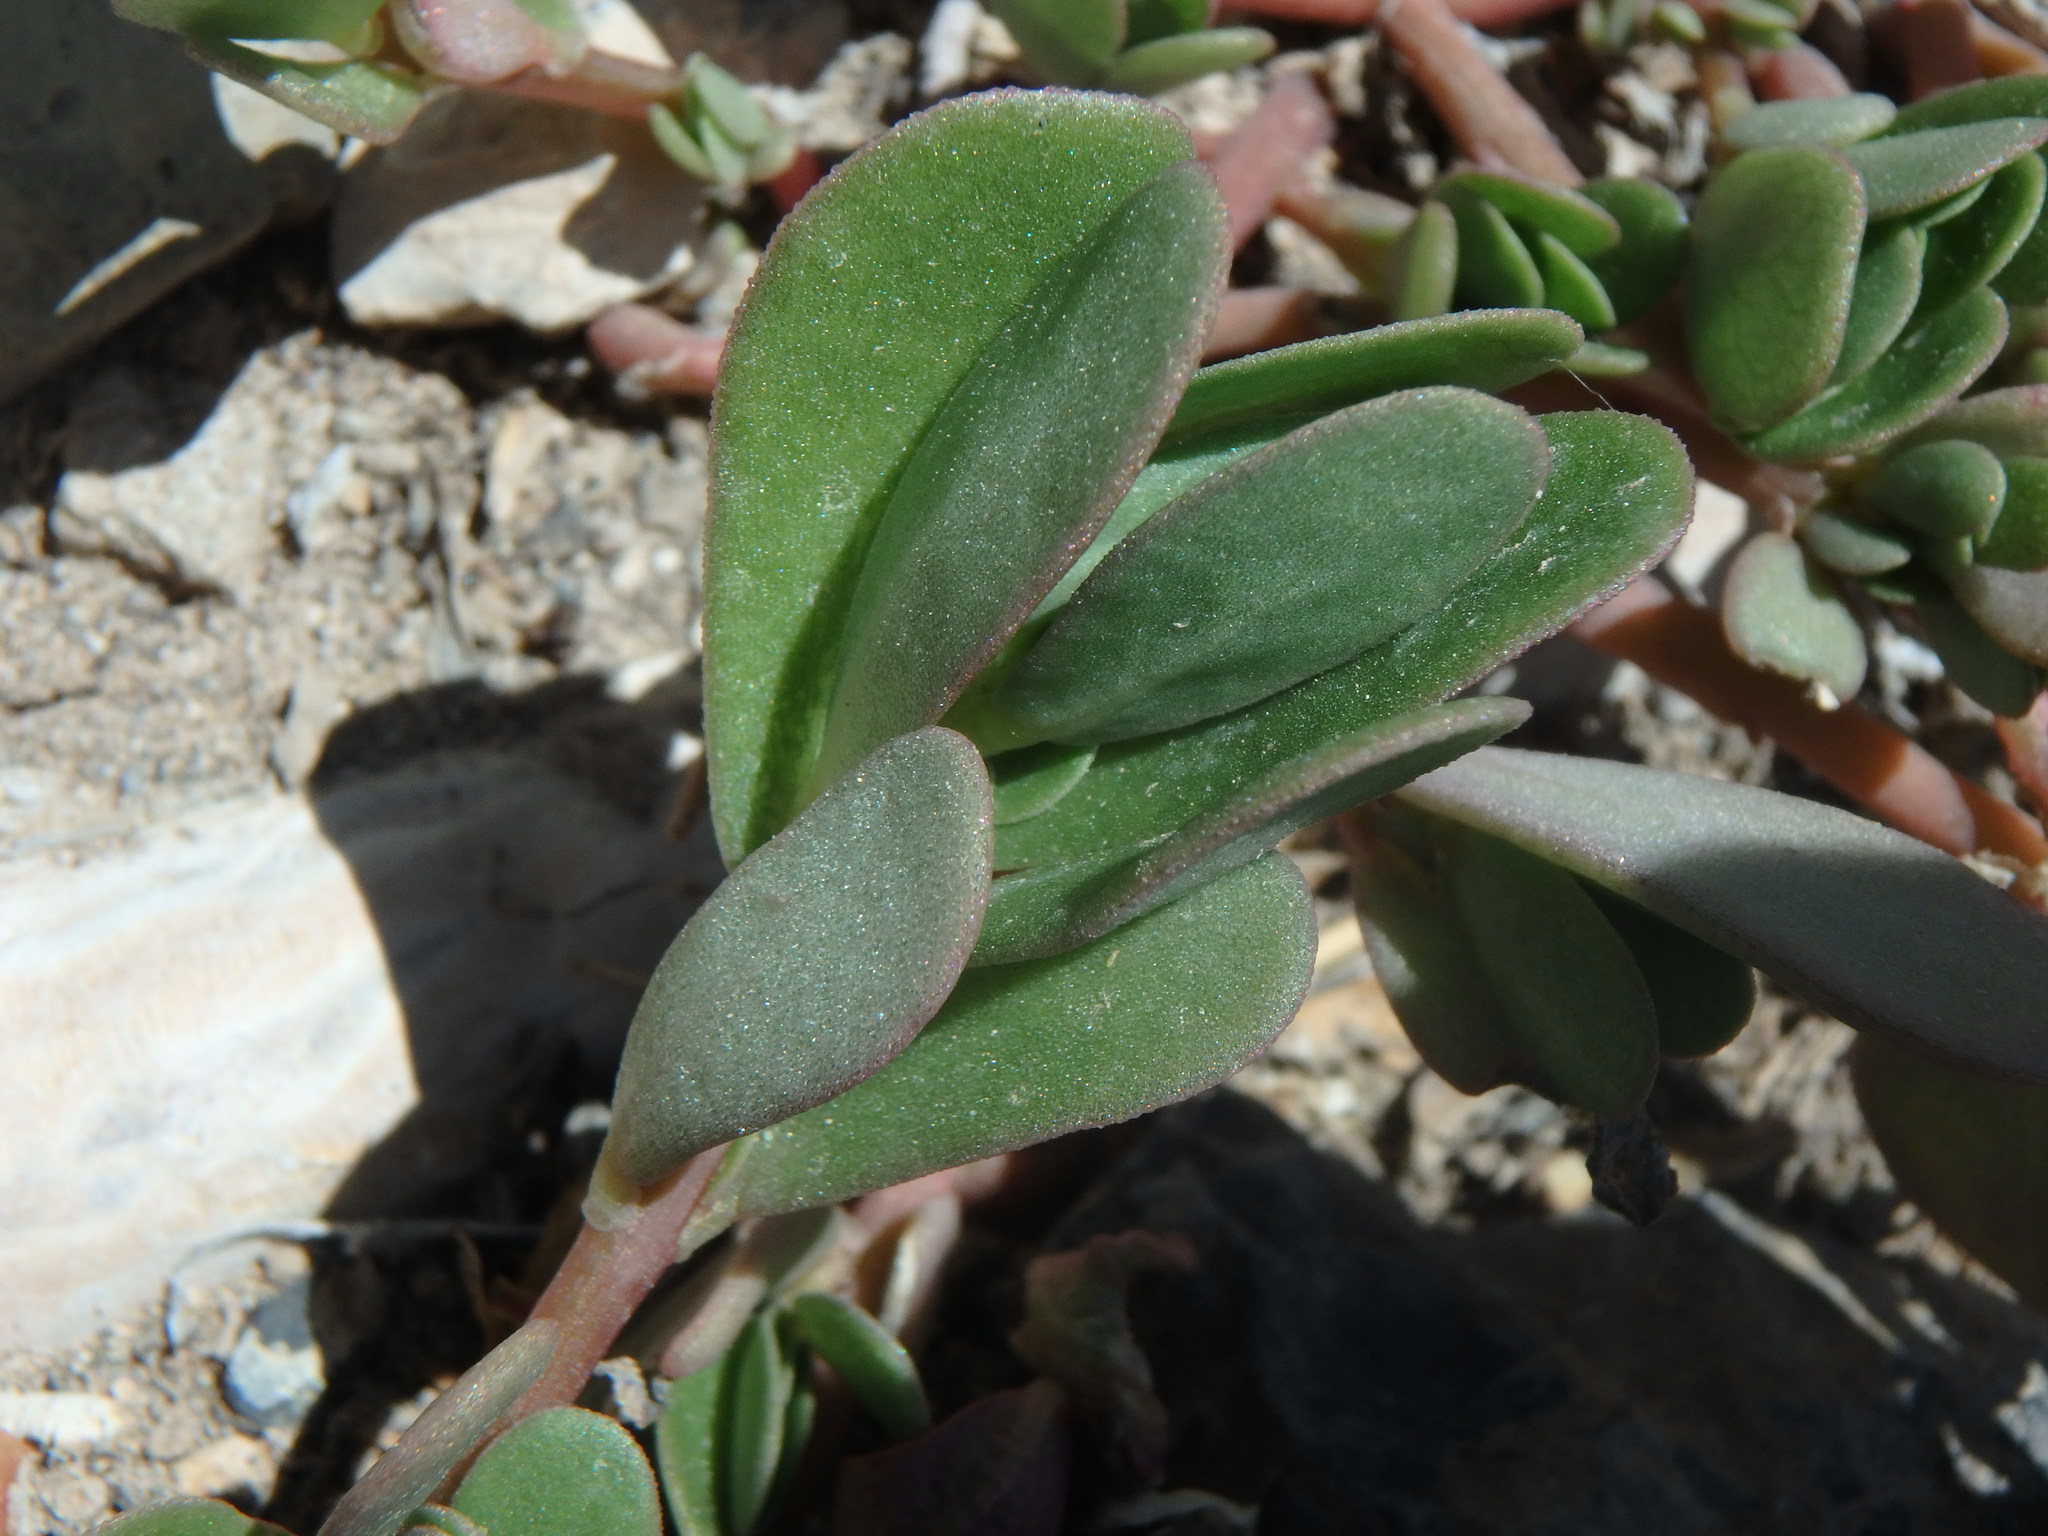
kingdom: Plantae
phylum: Tracheophyta
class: Magnoliopsida
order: Caryophyllales
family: Portulacaceae
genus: Portulaca
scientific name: Portulaca oleracea
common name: Common purslane
